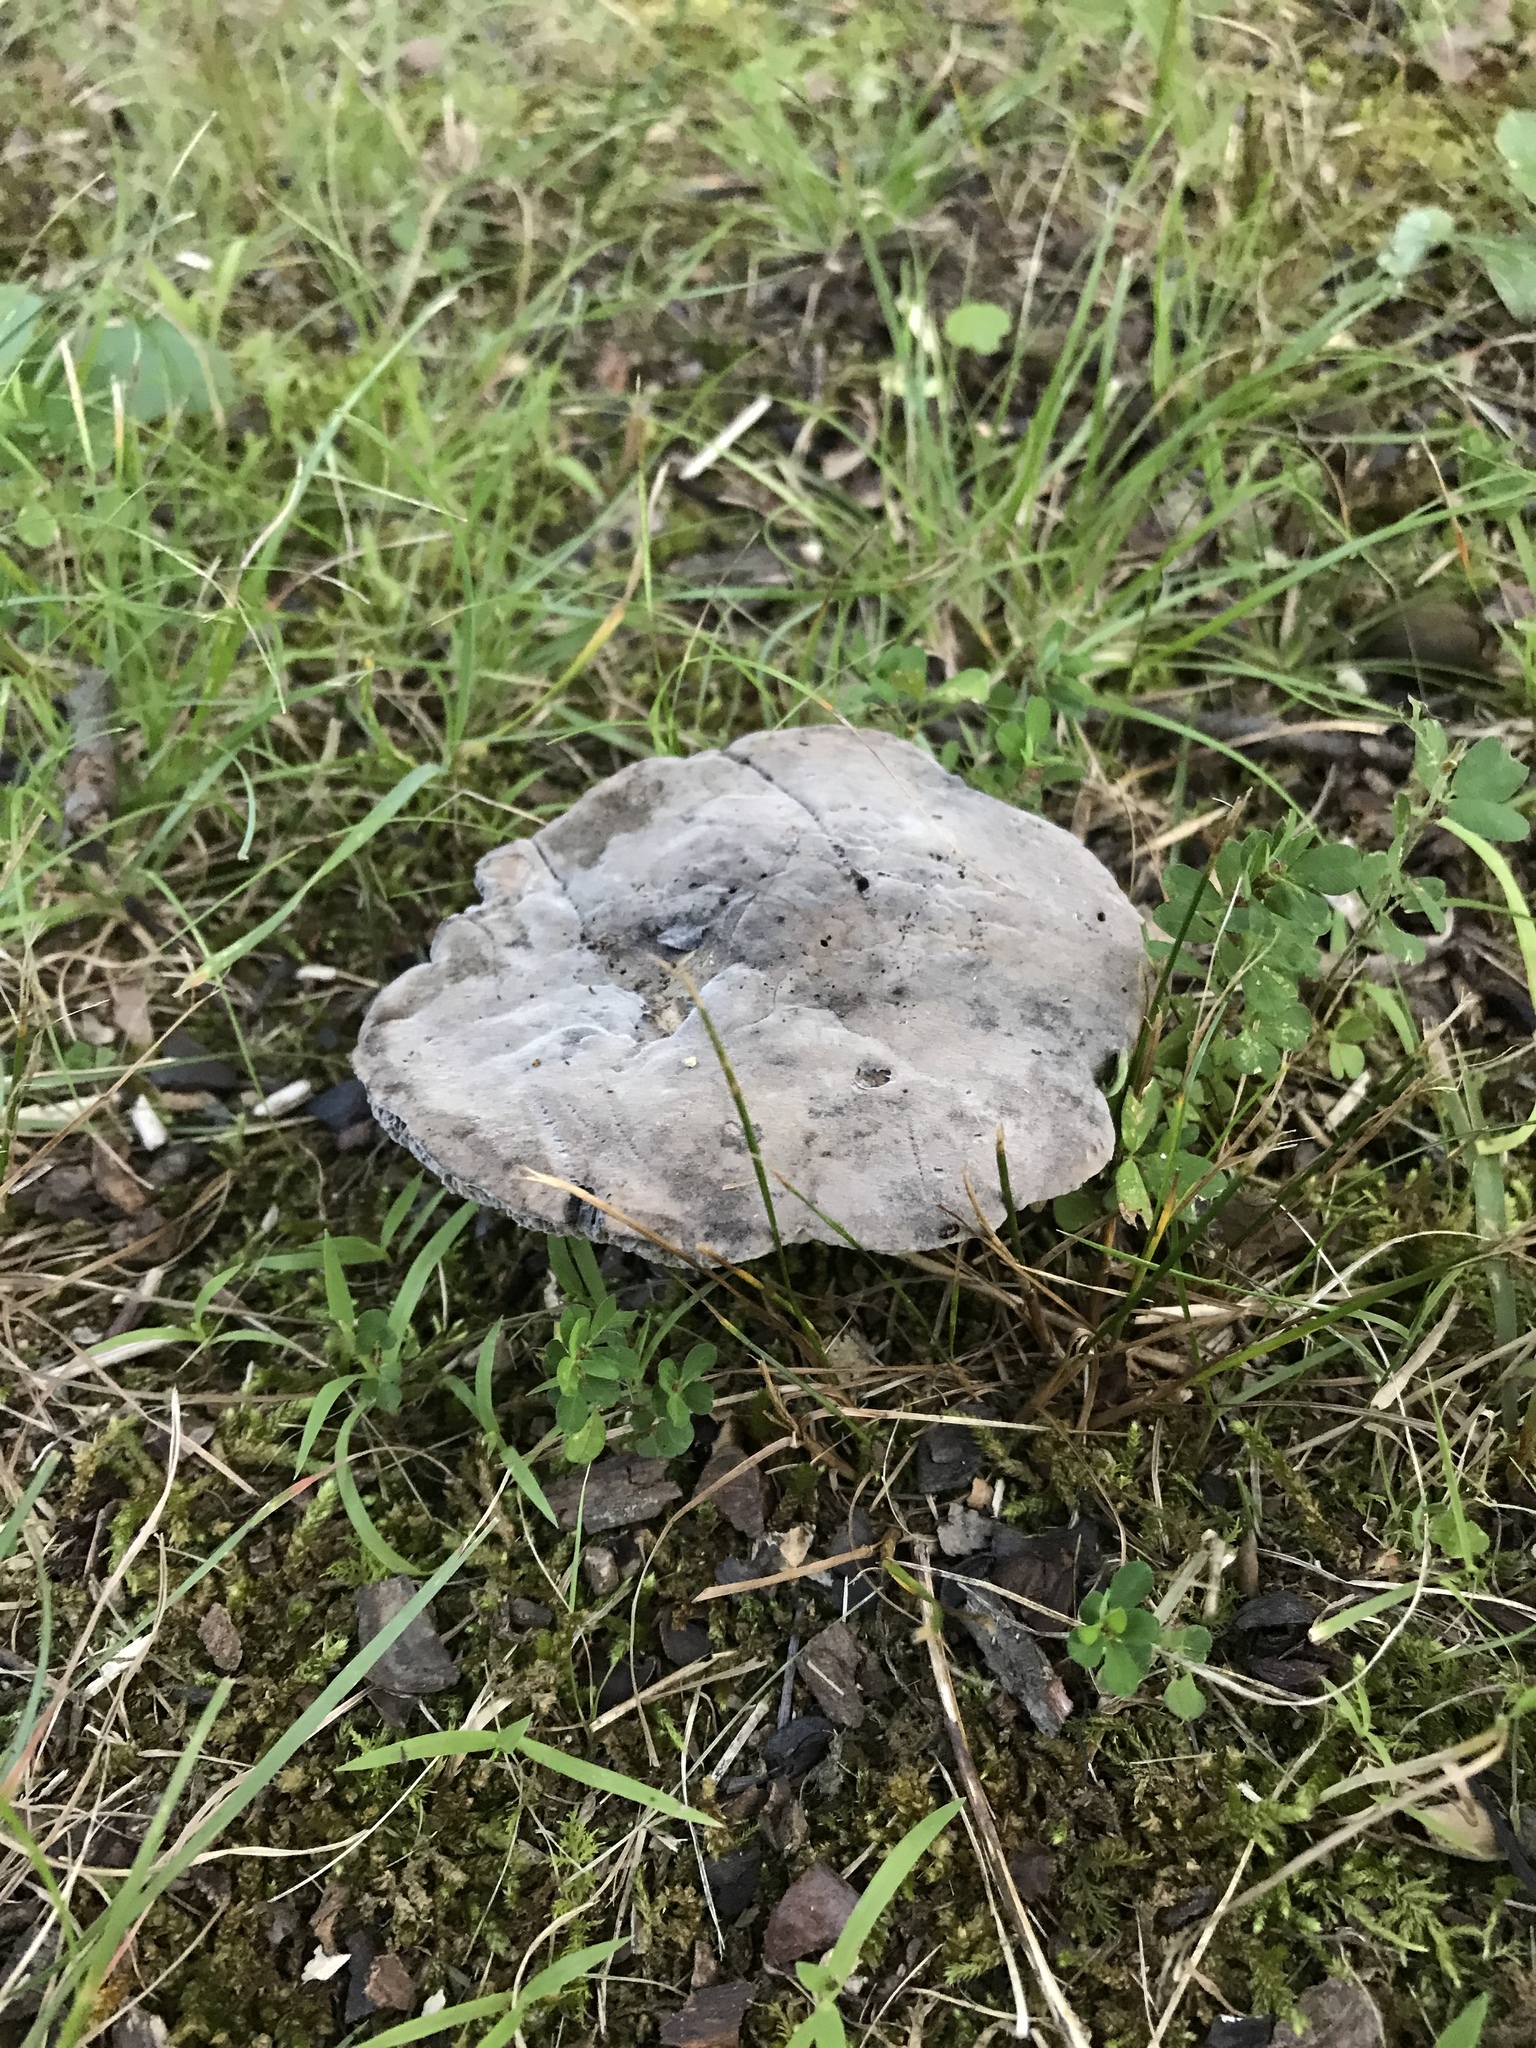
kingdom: Fungi
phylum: Basidiomycota
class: Agaricomycetes
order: Boletales
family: Boletaceae
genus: Tylopilus
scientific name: Tylopilus alboater
